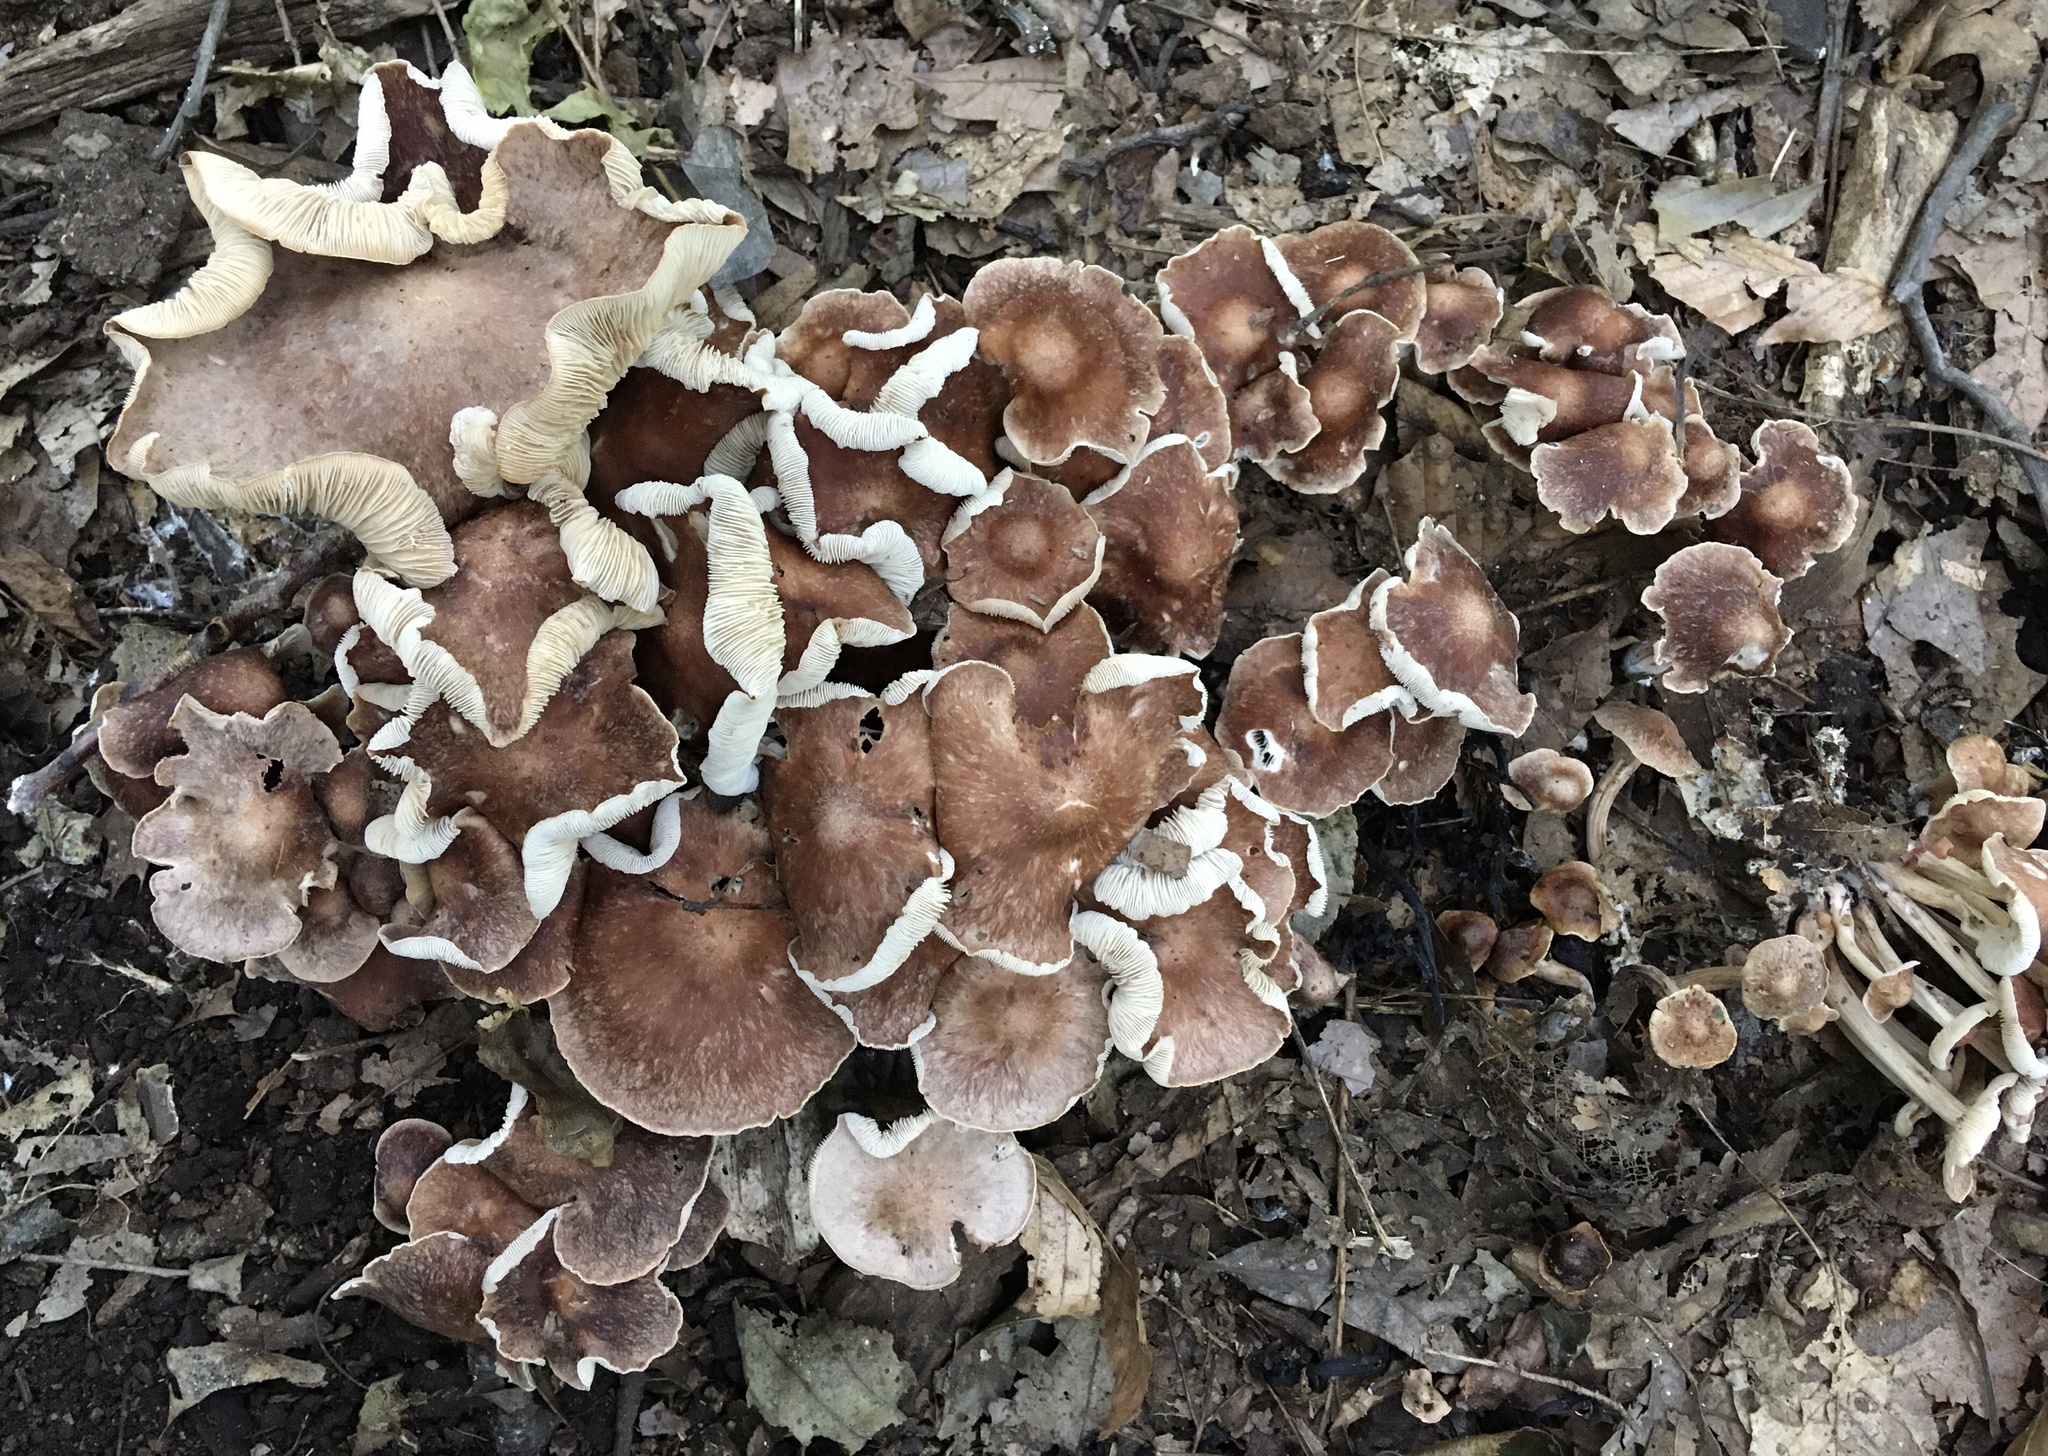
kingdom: Fungi
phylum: Basidiomycota
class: Agaricomycetes
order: Agaricales
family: Omphalotaceae
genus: Collybiopsis
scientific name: Collybiopsis luxurians
